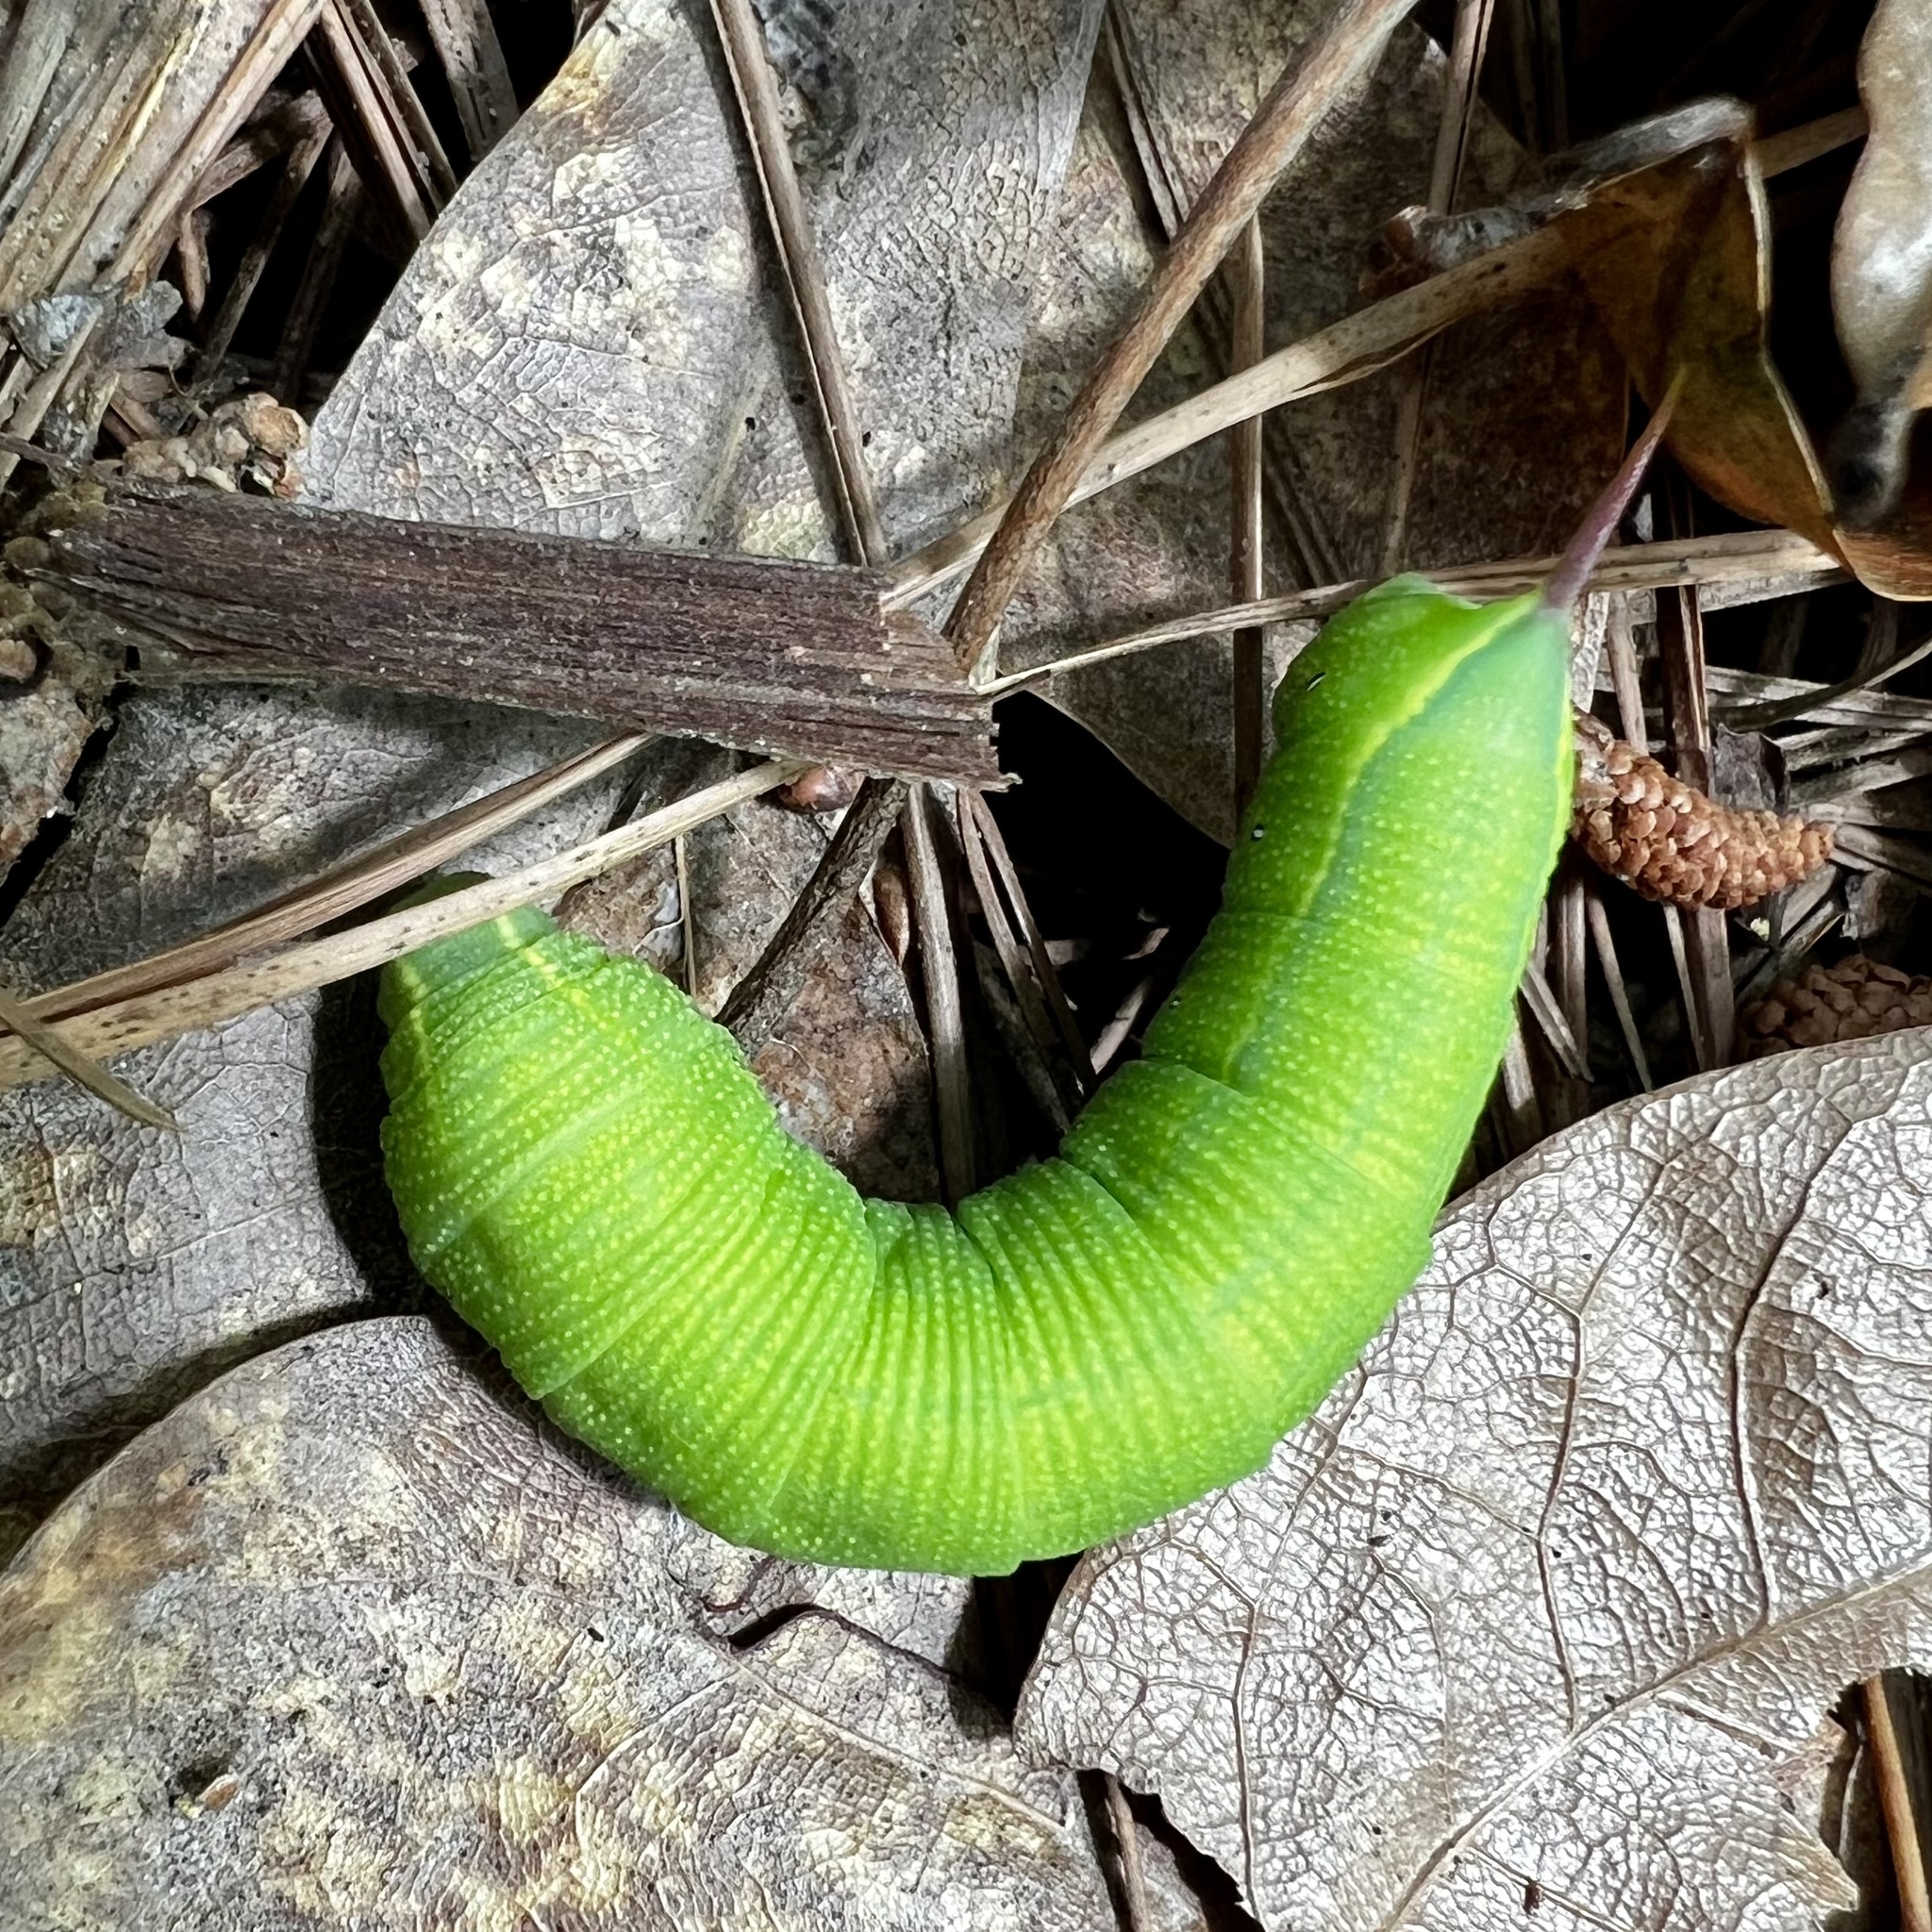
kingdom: Animalia
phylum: Arthropoda
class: Insecta
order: Lepidoptera
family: Sphingidae
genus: Deidamia
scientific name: Deidamia inscriptum
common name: Lettered sphinx
